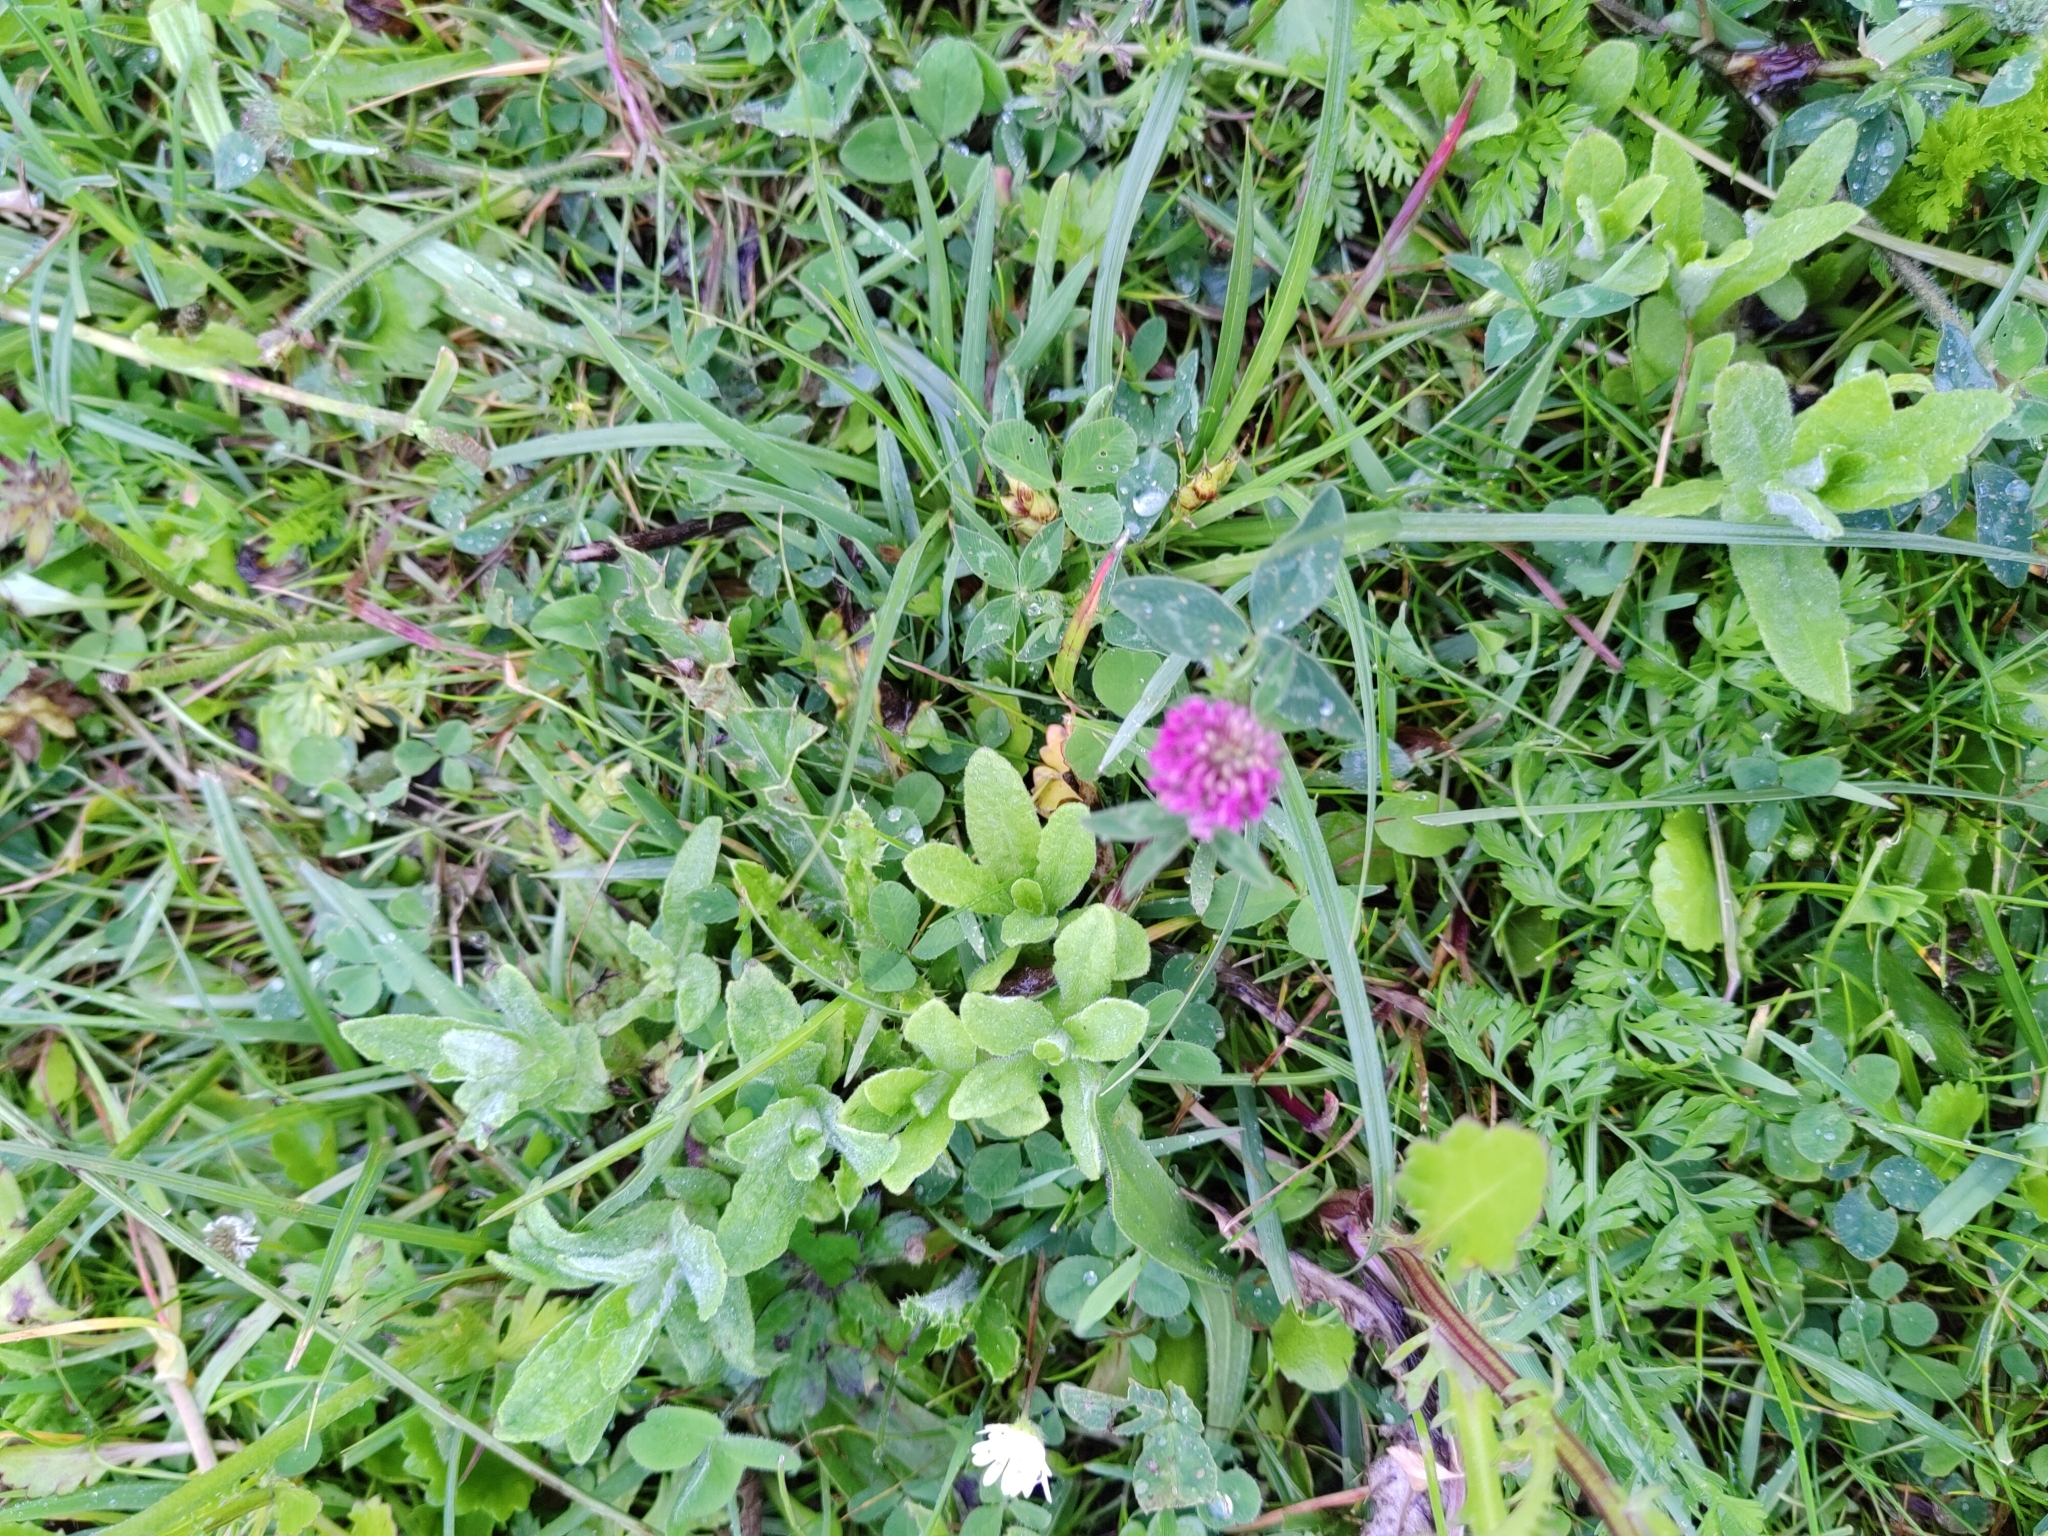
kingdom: Plantae
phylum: Tracheophyta
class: Magnoliopsida
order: Fabales
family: Fabaceae
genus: Trifolium
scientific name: Trifolium pratense
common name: Red clover
